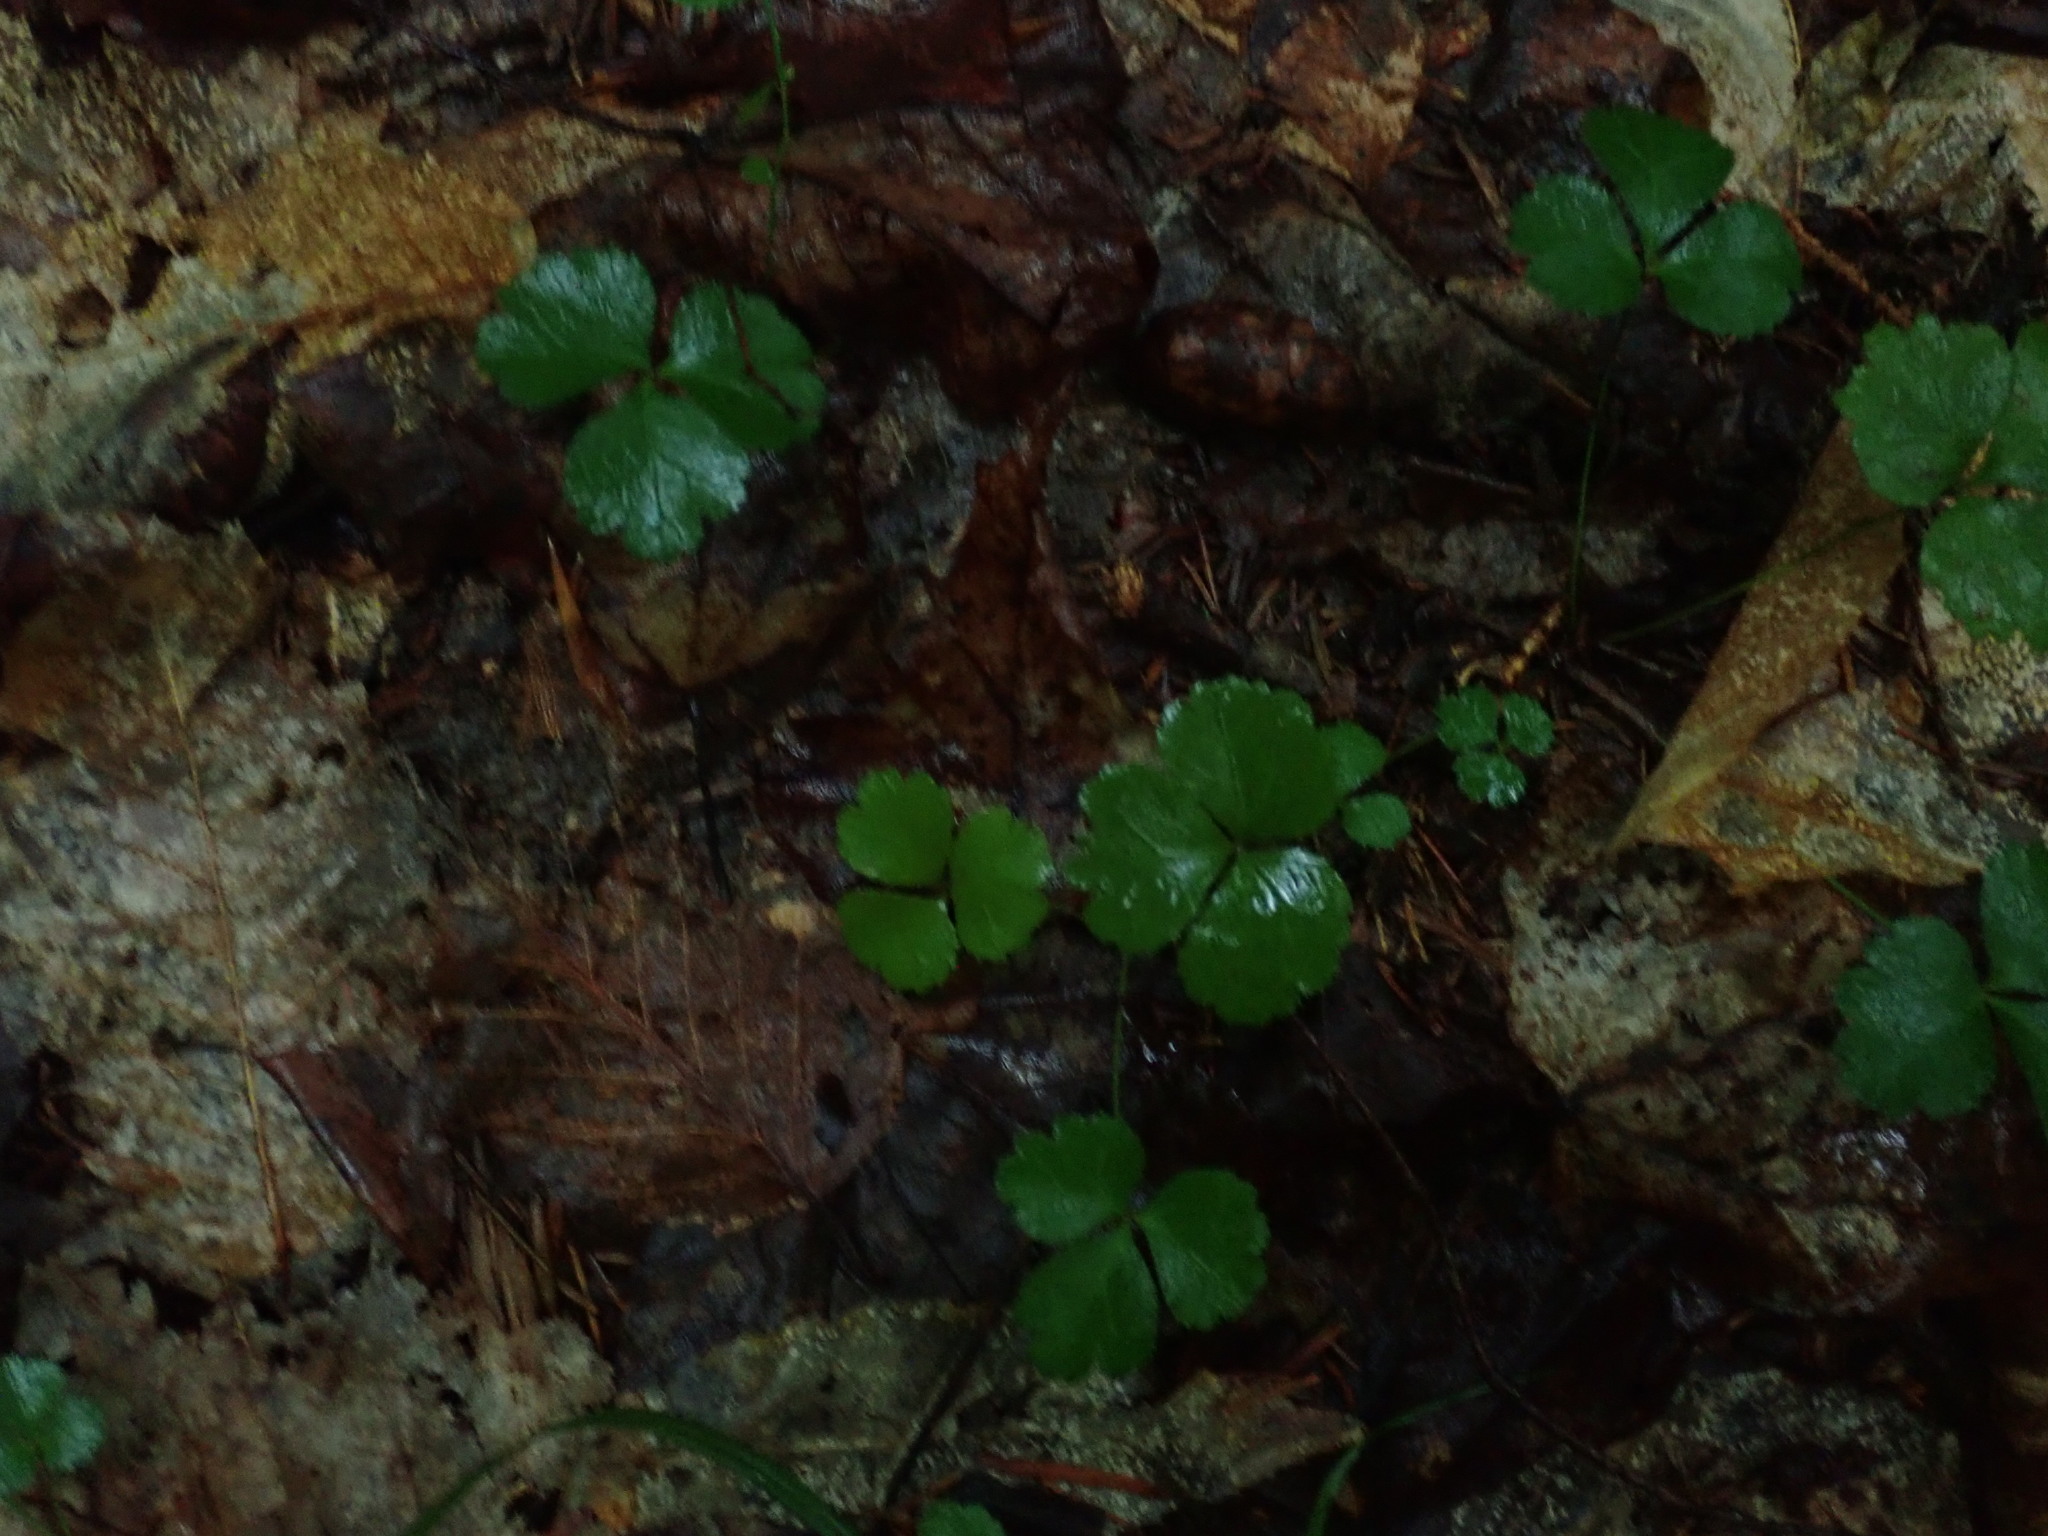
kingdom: Plantae
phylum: Tracheophyta
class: Magnoliopsida
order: Ranunculales
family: Ranunculaceae
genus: Coptis
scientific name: Coptis trifolia
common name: Canker-root
